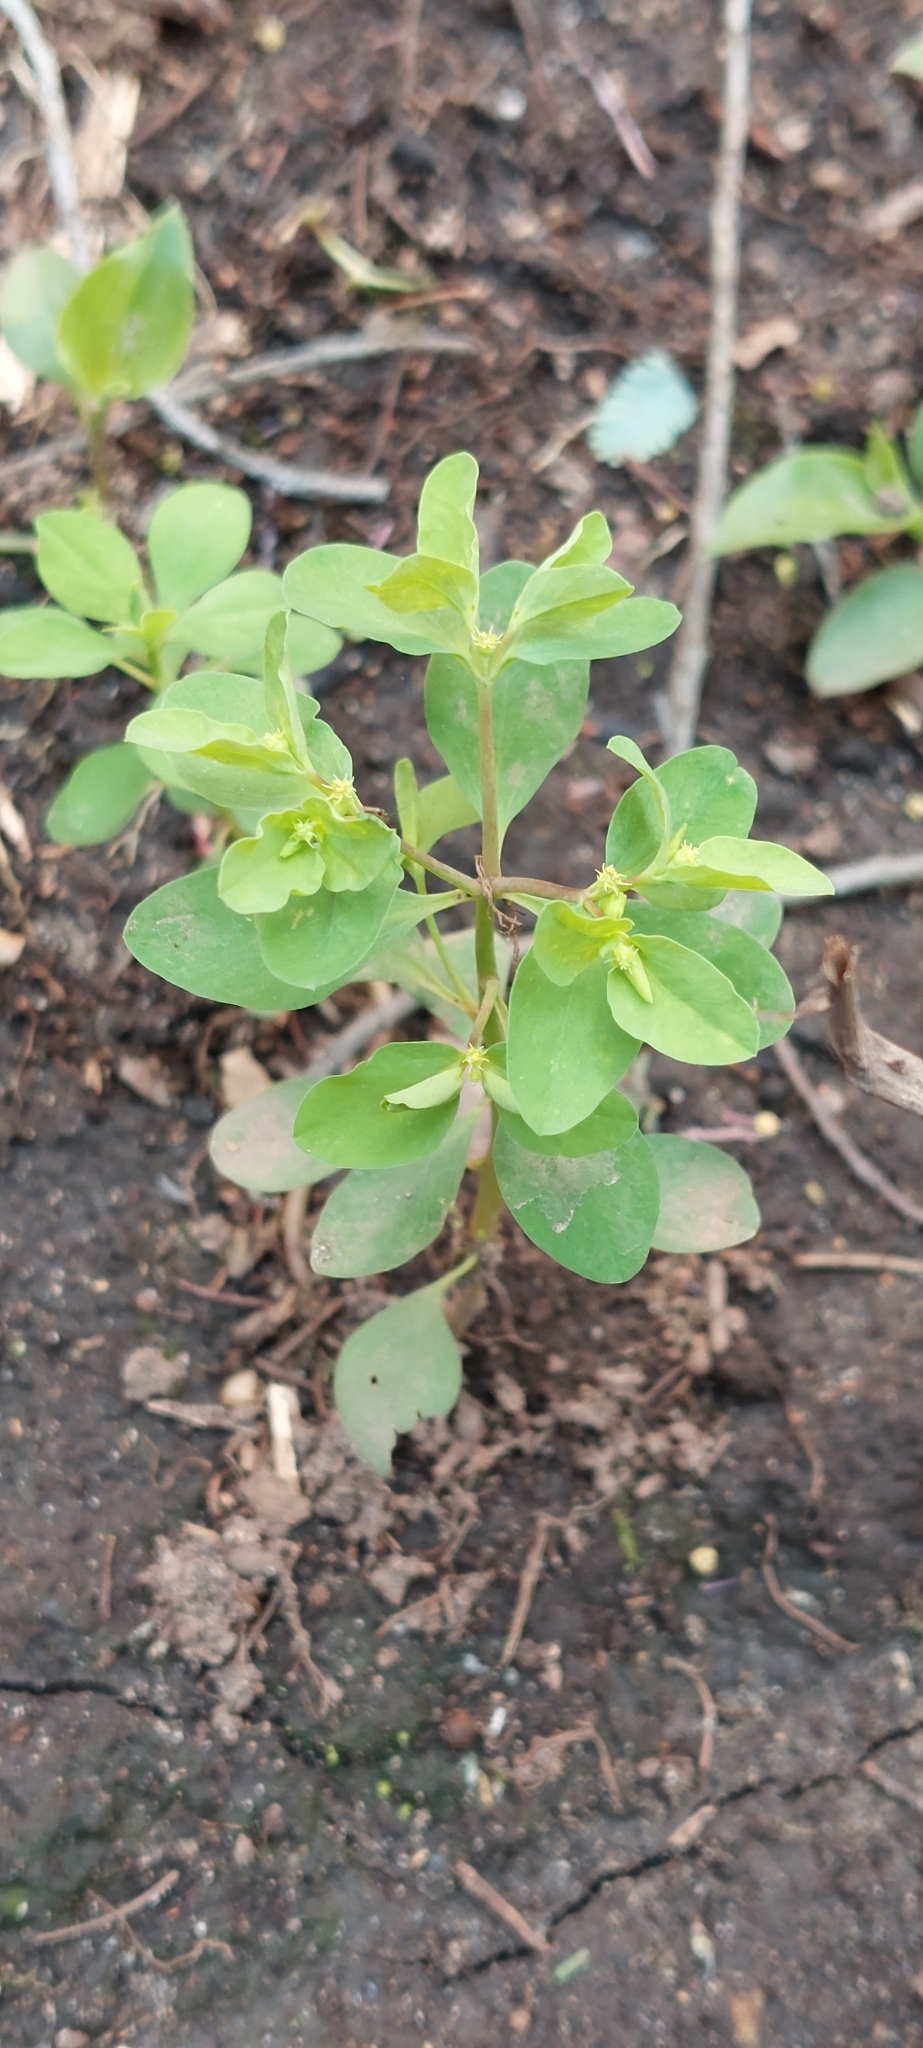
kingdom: Plantae
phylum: Tracheophyta
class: Magnoliopsida
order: Malpighiales
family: Euphorbiaceae
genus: Euphorbia
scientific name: Euphorbia peplus
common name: Petty spurge
